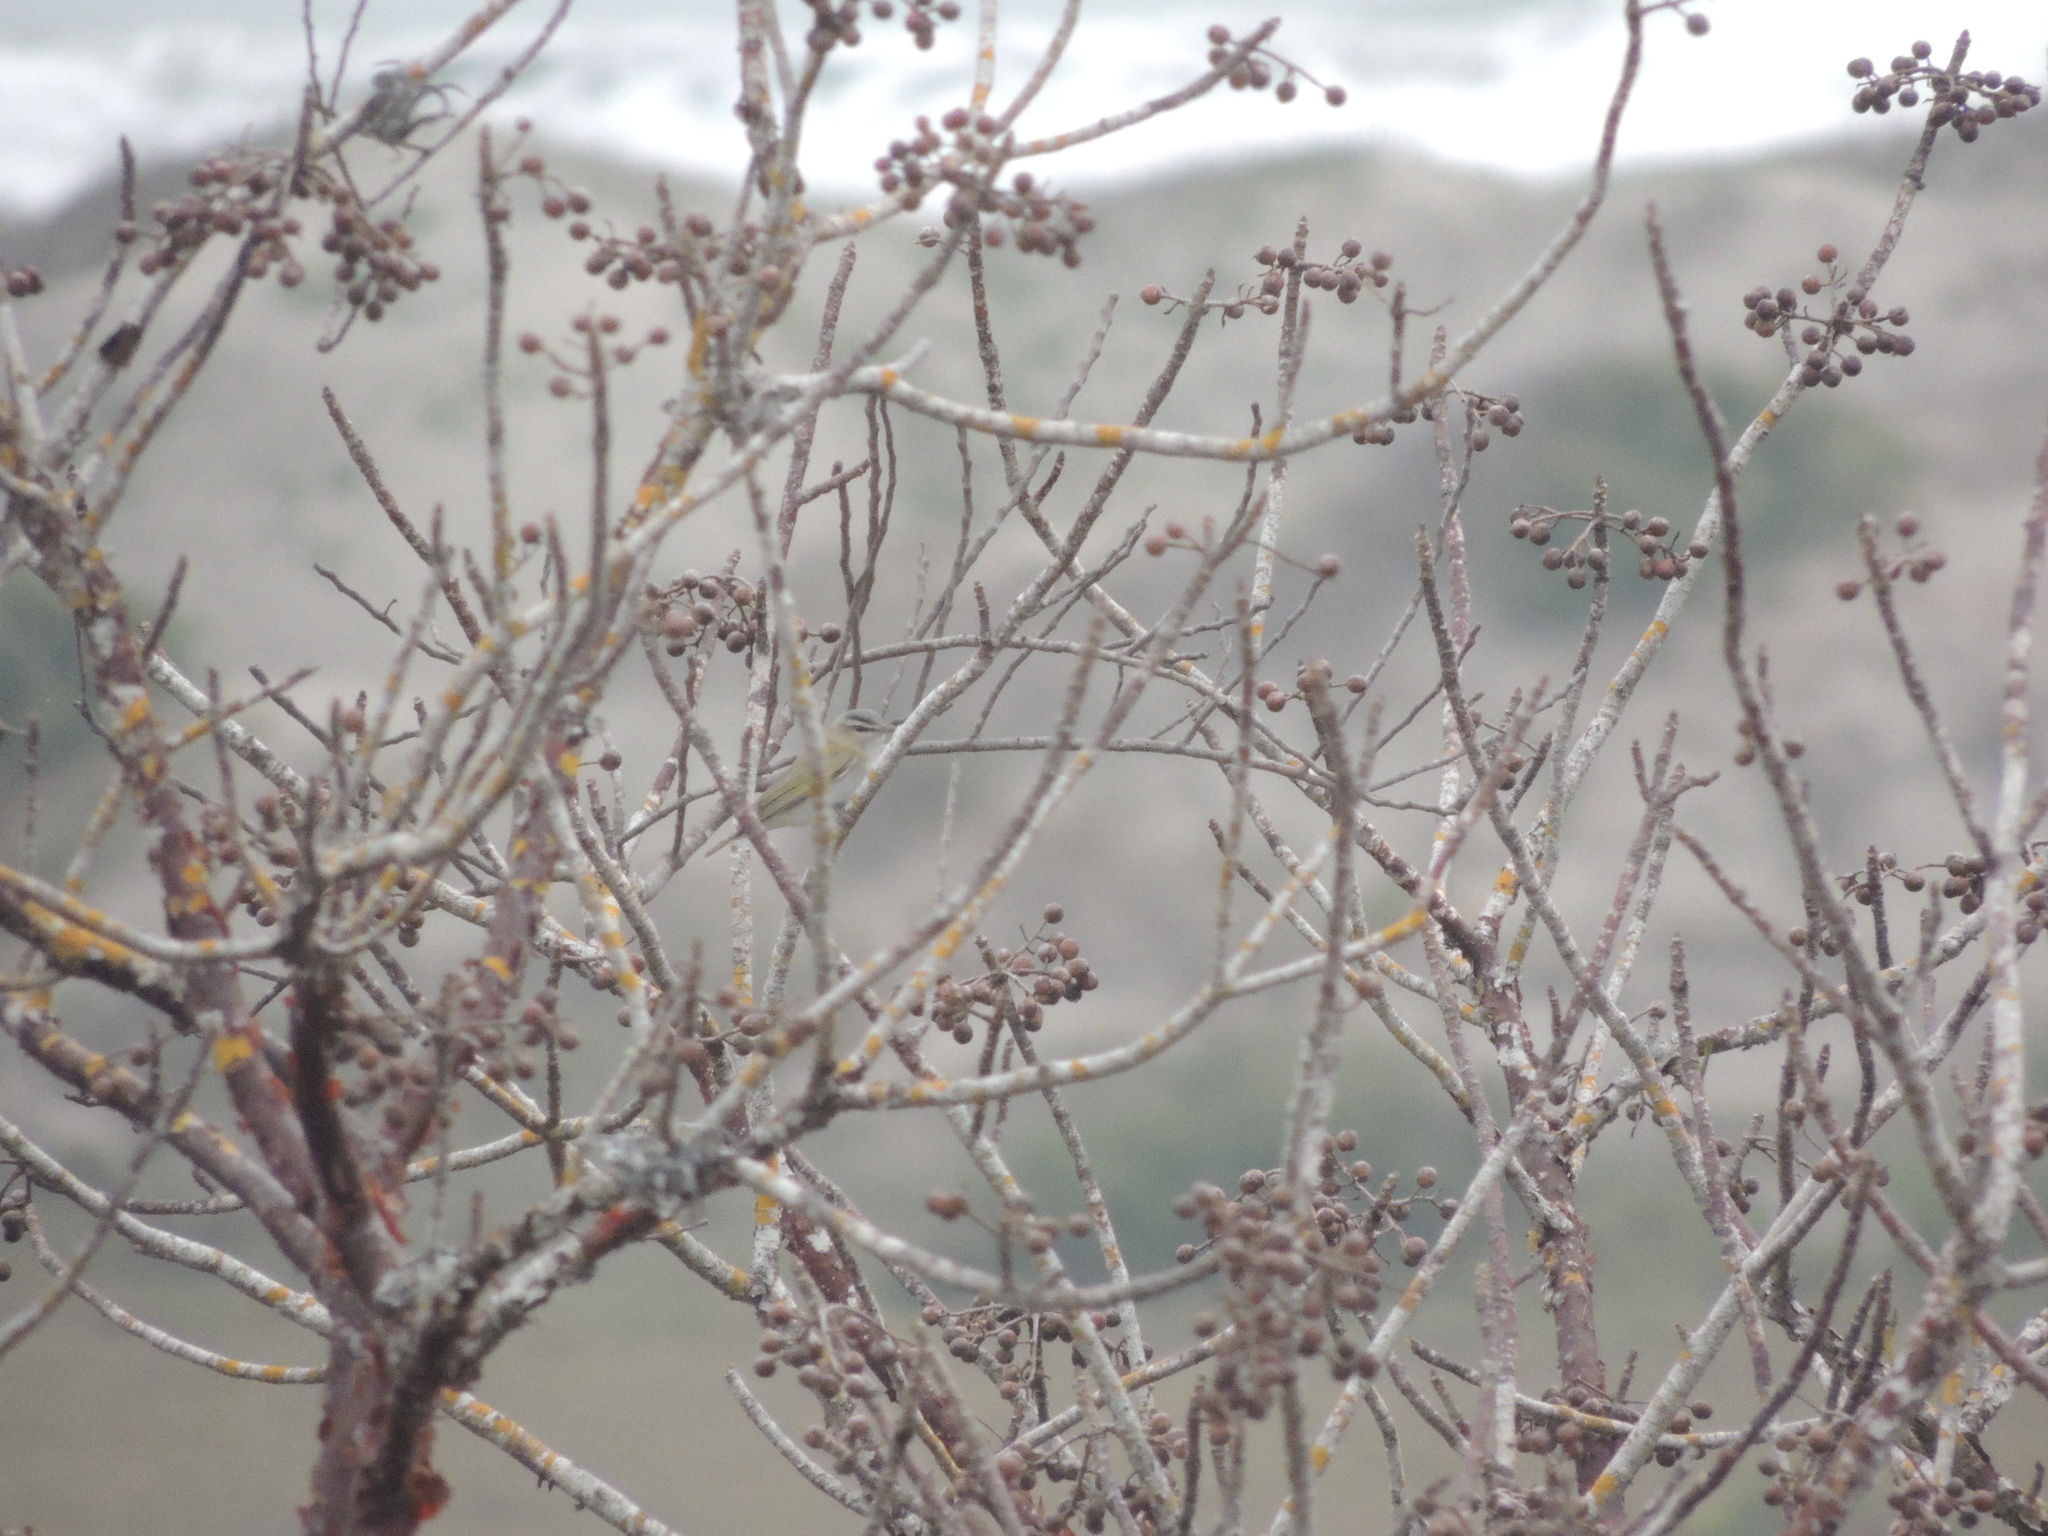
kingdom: Animalia
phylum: Chordata
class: Aves
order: Passeriformes
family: Vireonidae
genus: Vireo
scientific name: Vireo olivaceus
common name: Red-eyed vireo
